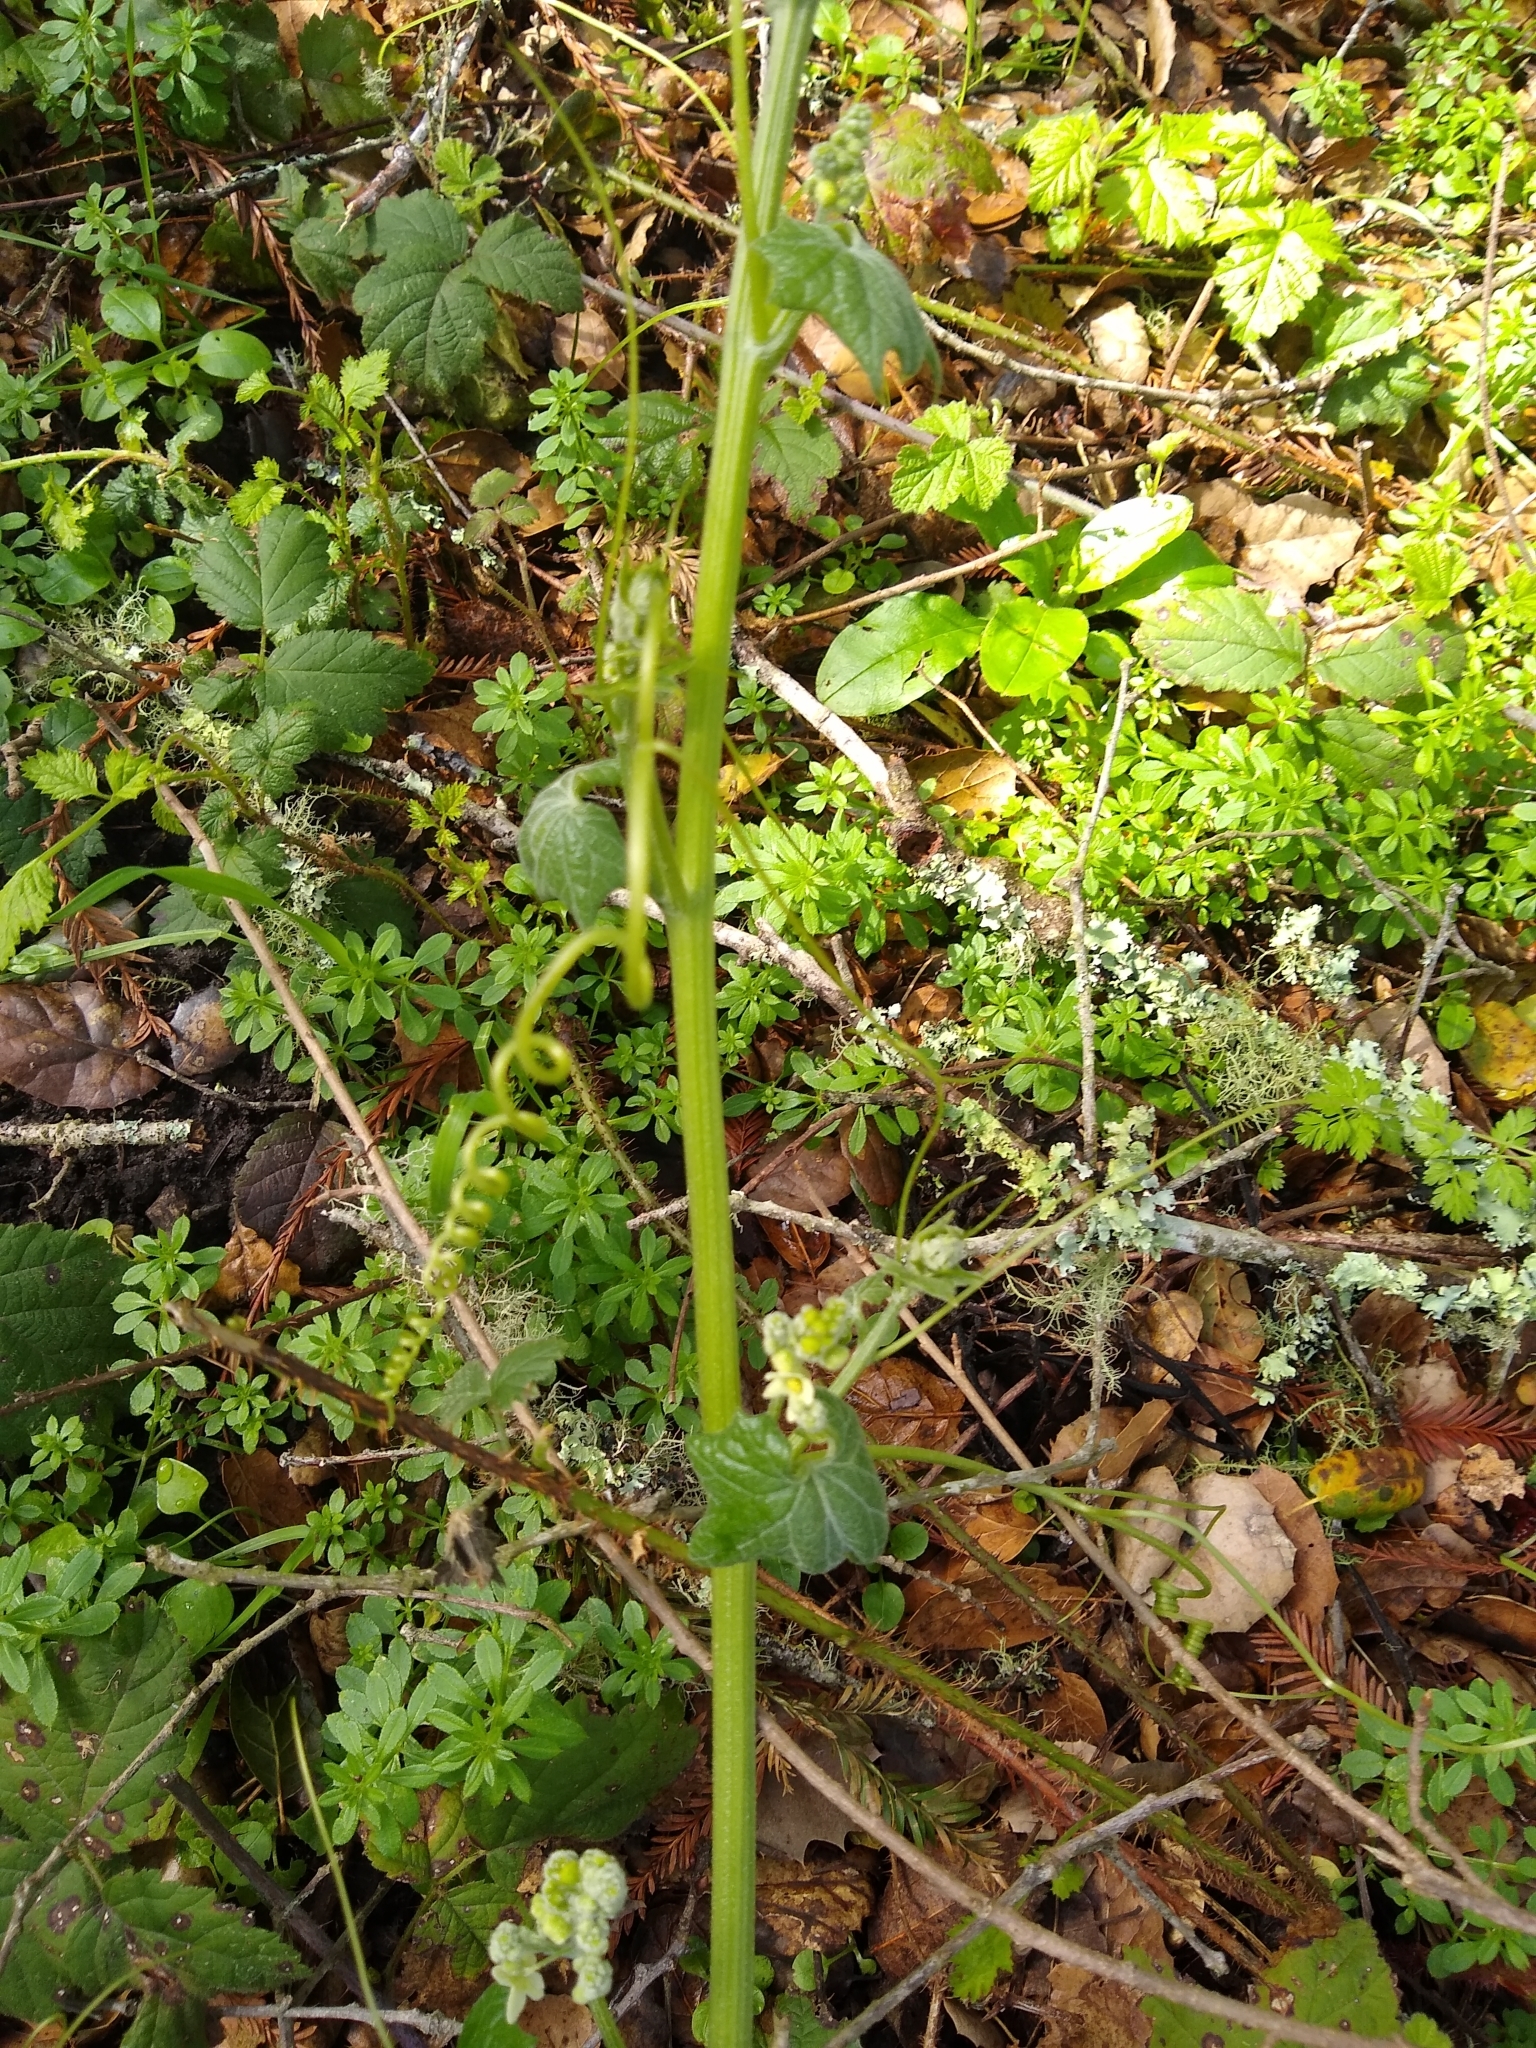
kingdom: Plantae
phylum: Tracheophyta
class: Magnoliopsida
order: Cucurbitales
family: Cucurbitaceae
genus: Marah
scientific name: Marah fabacea
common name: California manroot
